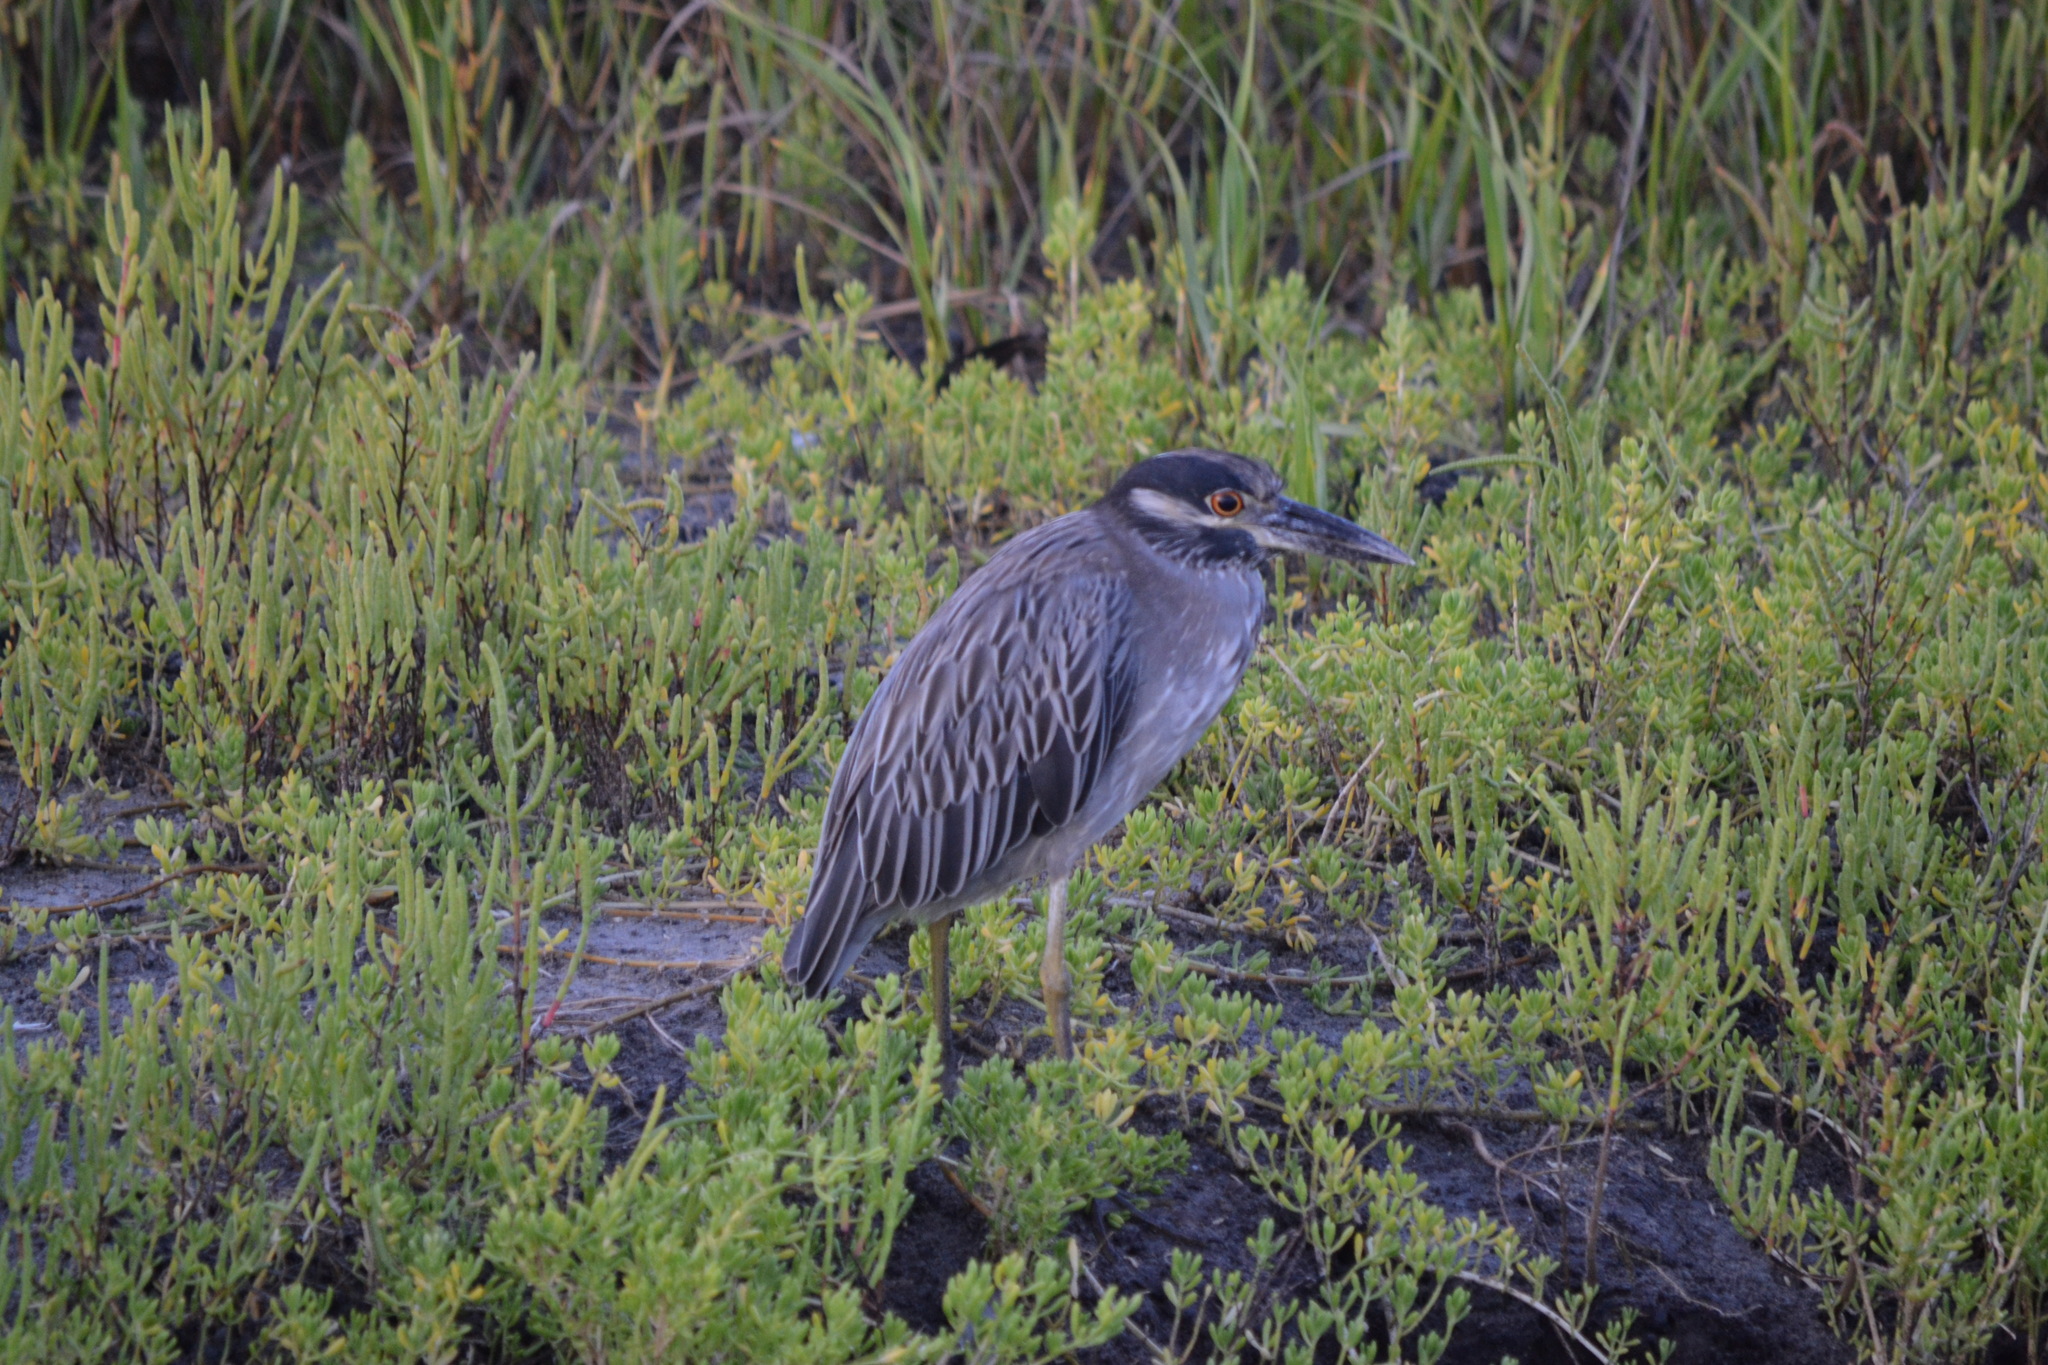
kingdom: Animalia
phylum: Chordata
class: Aves
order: Pelecaniformes
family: Ardeidae
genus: Nyctanassa
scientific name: Nyctanassa violacea
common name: Yellow-crowned night heron
